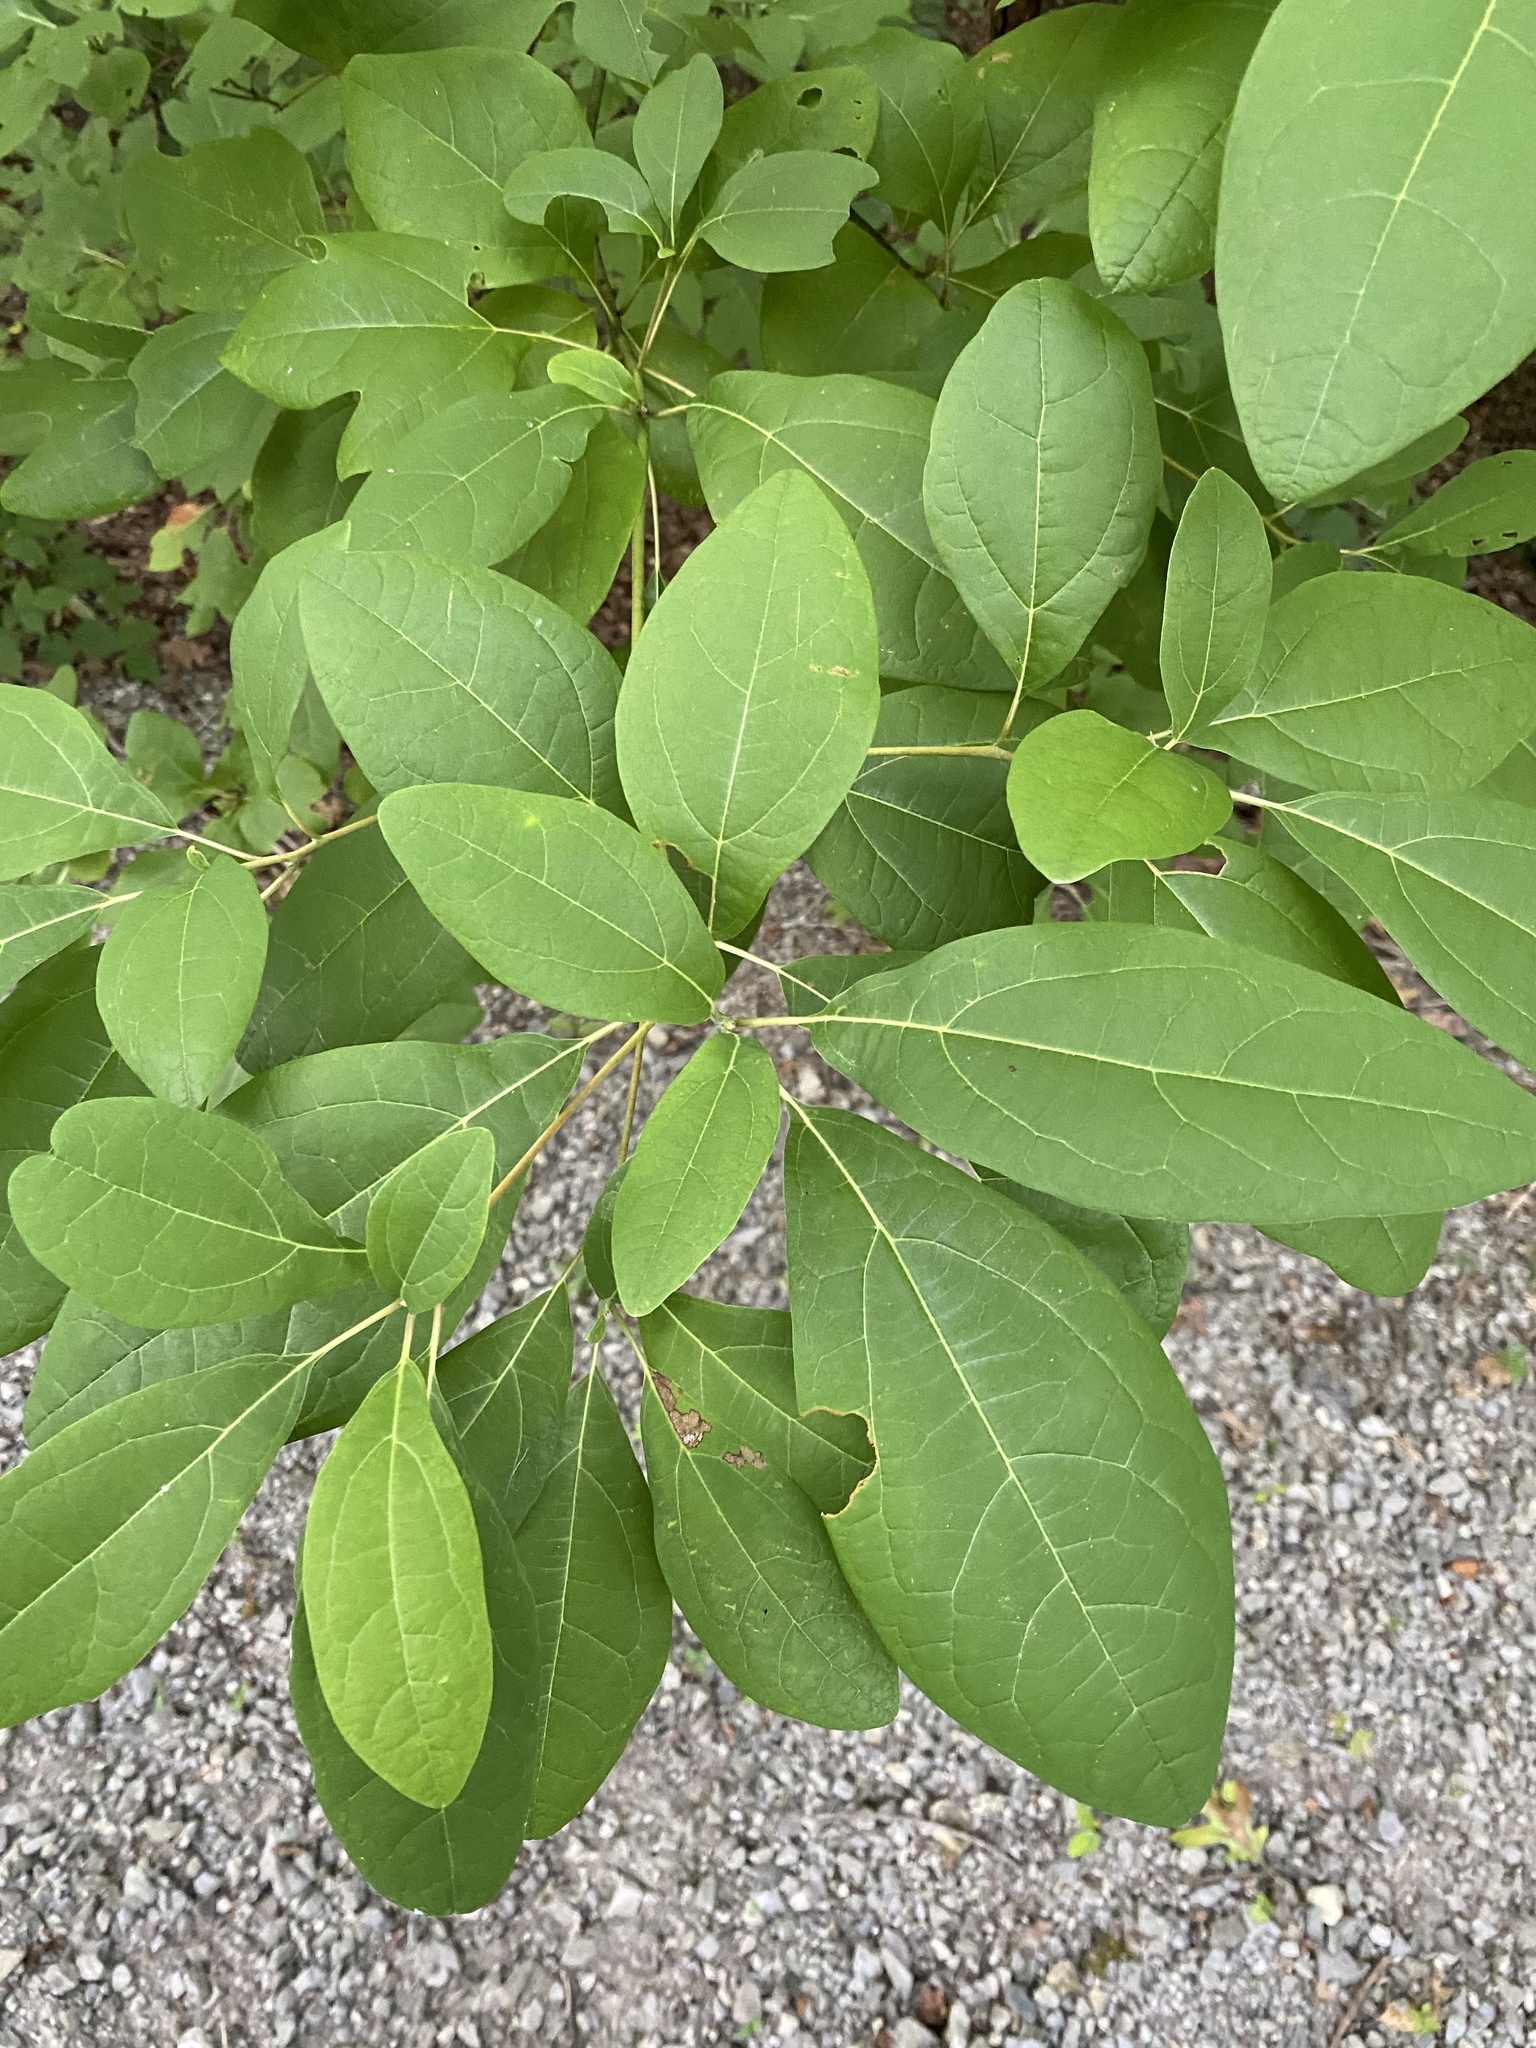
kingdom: Plantae
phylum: Tracheophyta
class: Magnoliopsida
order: Laurales
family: Lauraceae
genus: Sassafras
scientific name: Sassafras albidum
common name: Sassafras
